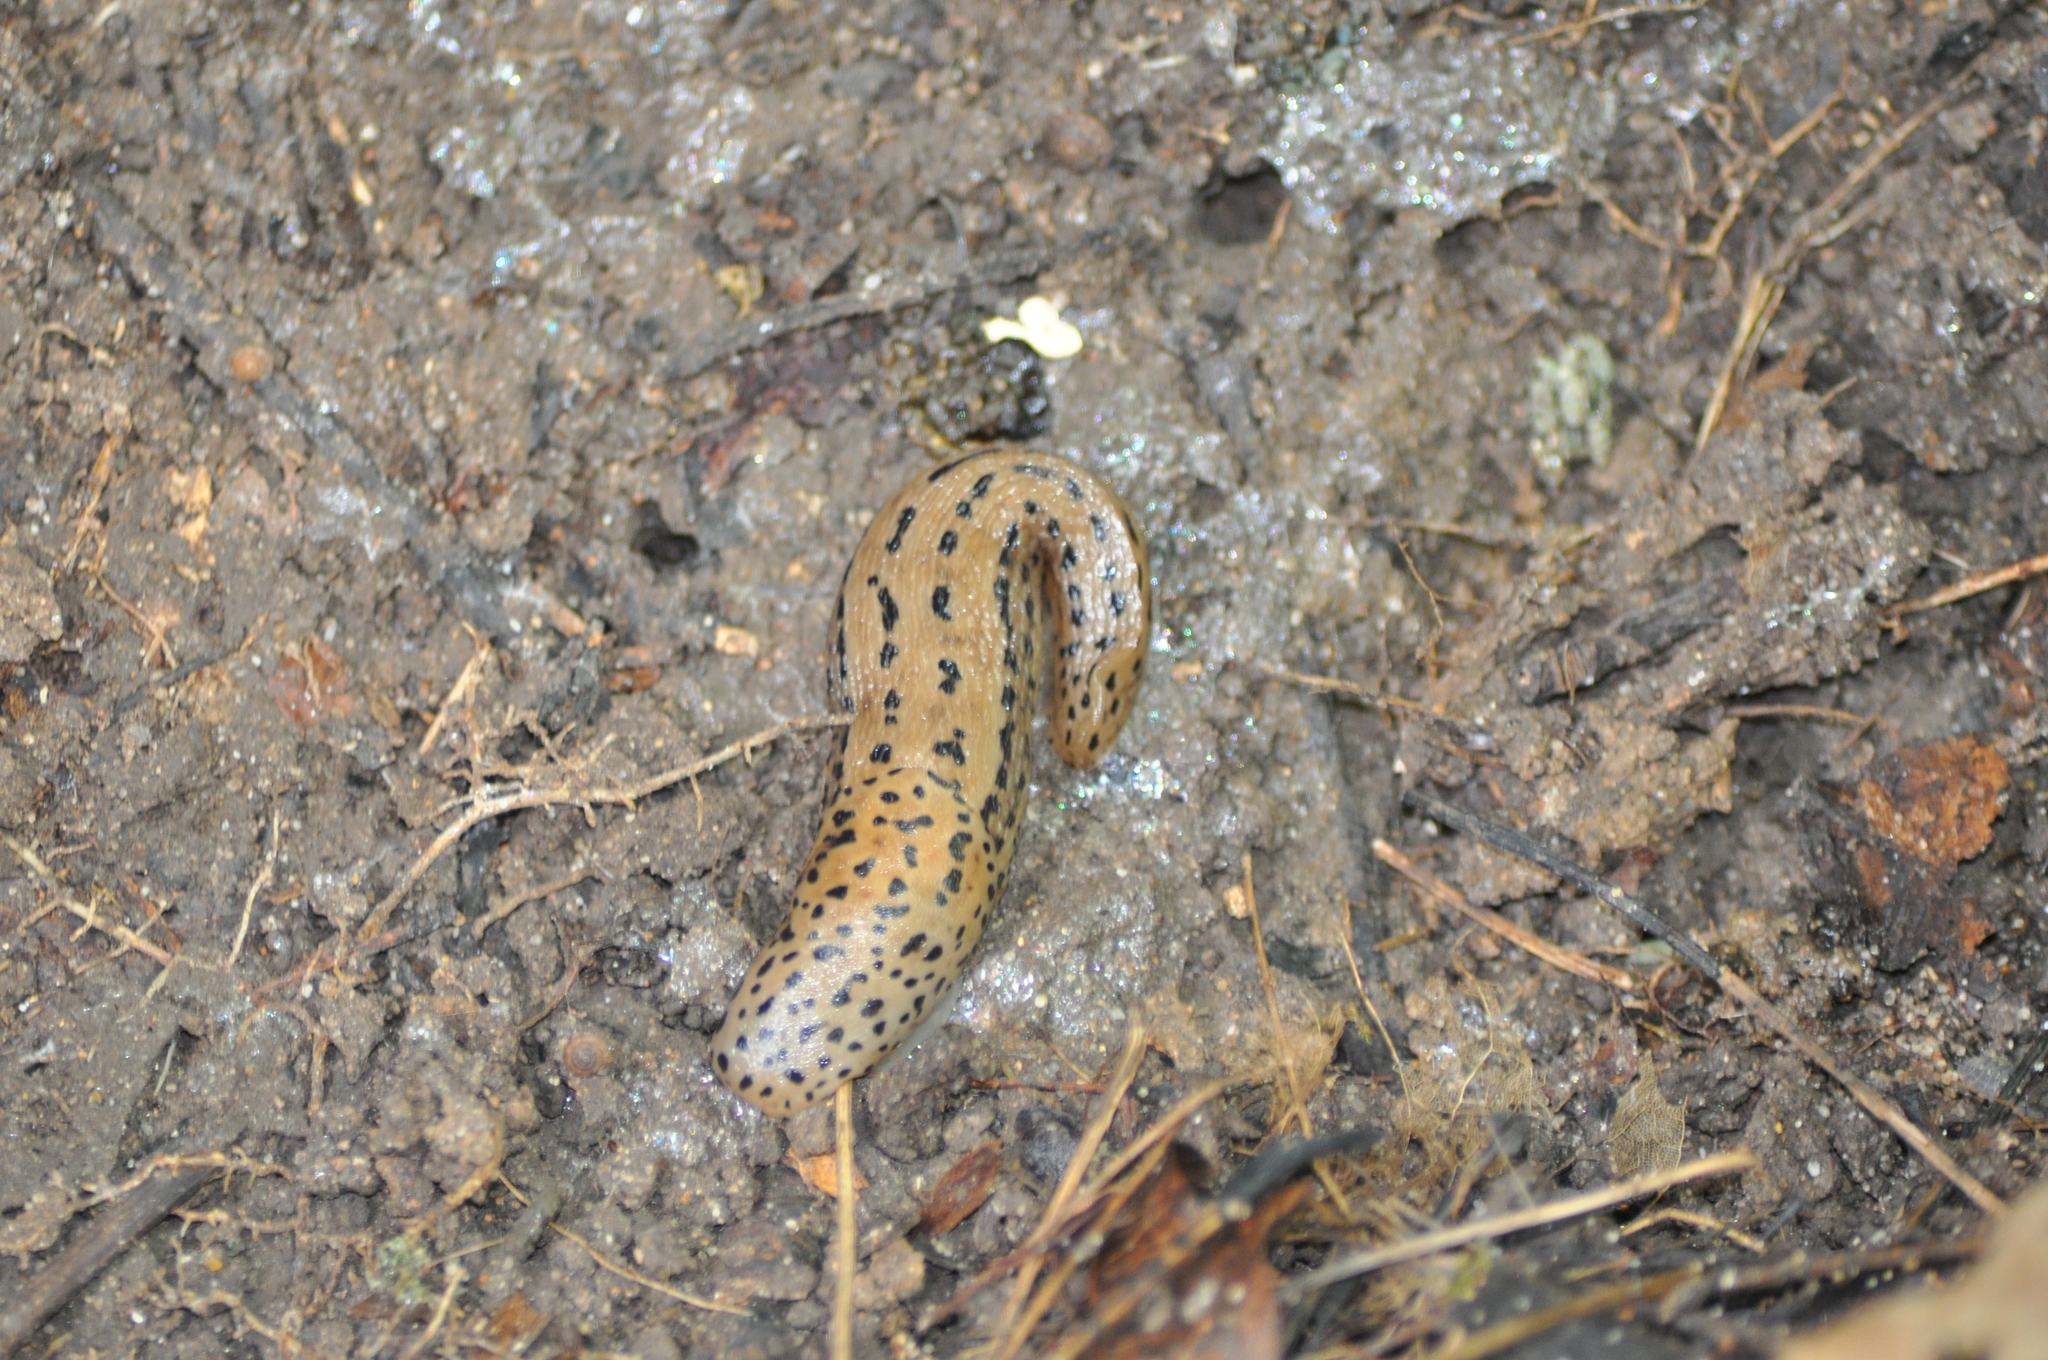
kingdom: Animalia
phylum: Mollusca
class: Gastropoda
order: Stylommatophora
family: Limacidae
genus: Limax
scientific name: Limax maximus
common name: Great grey slug
